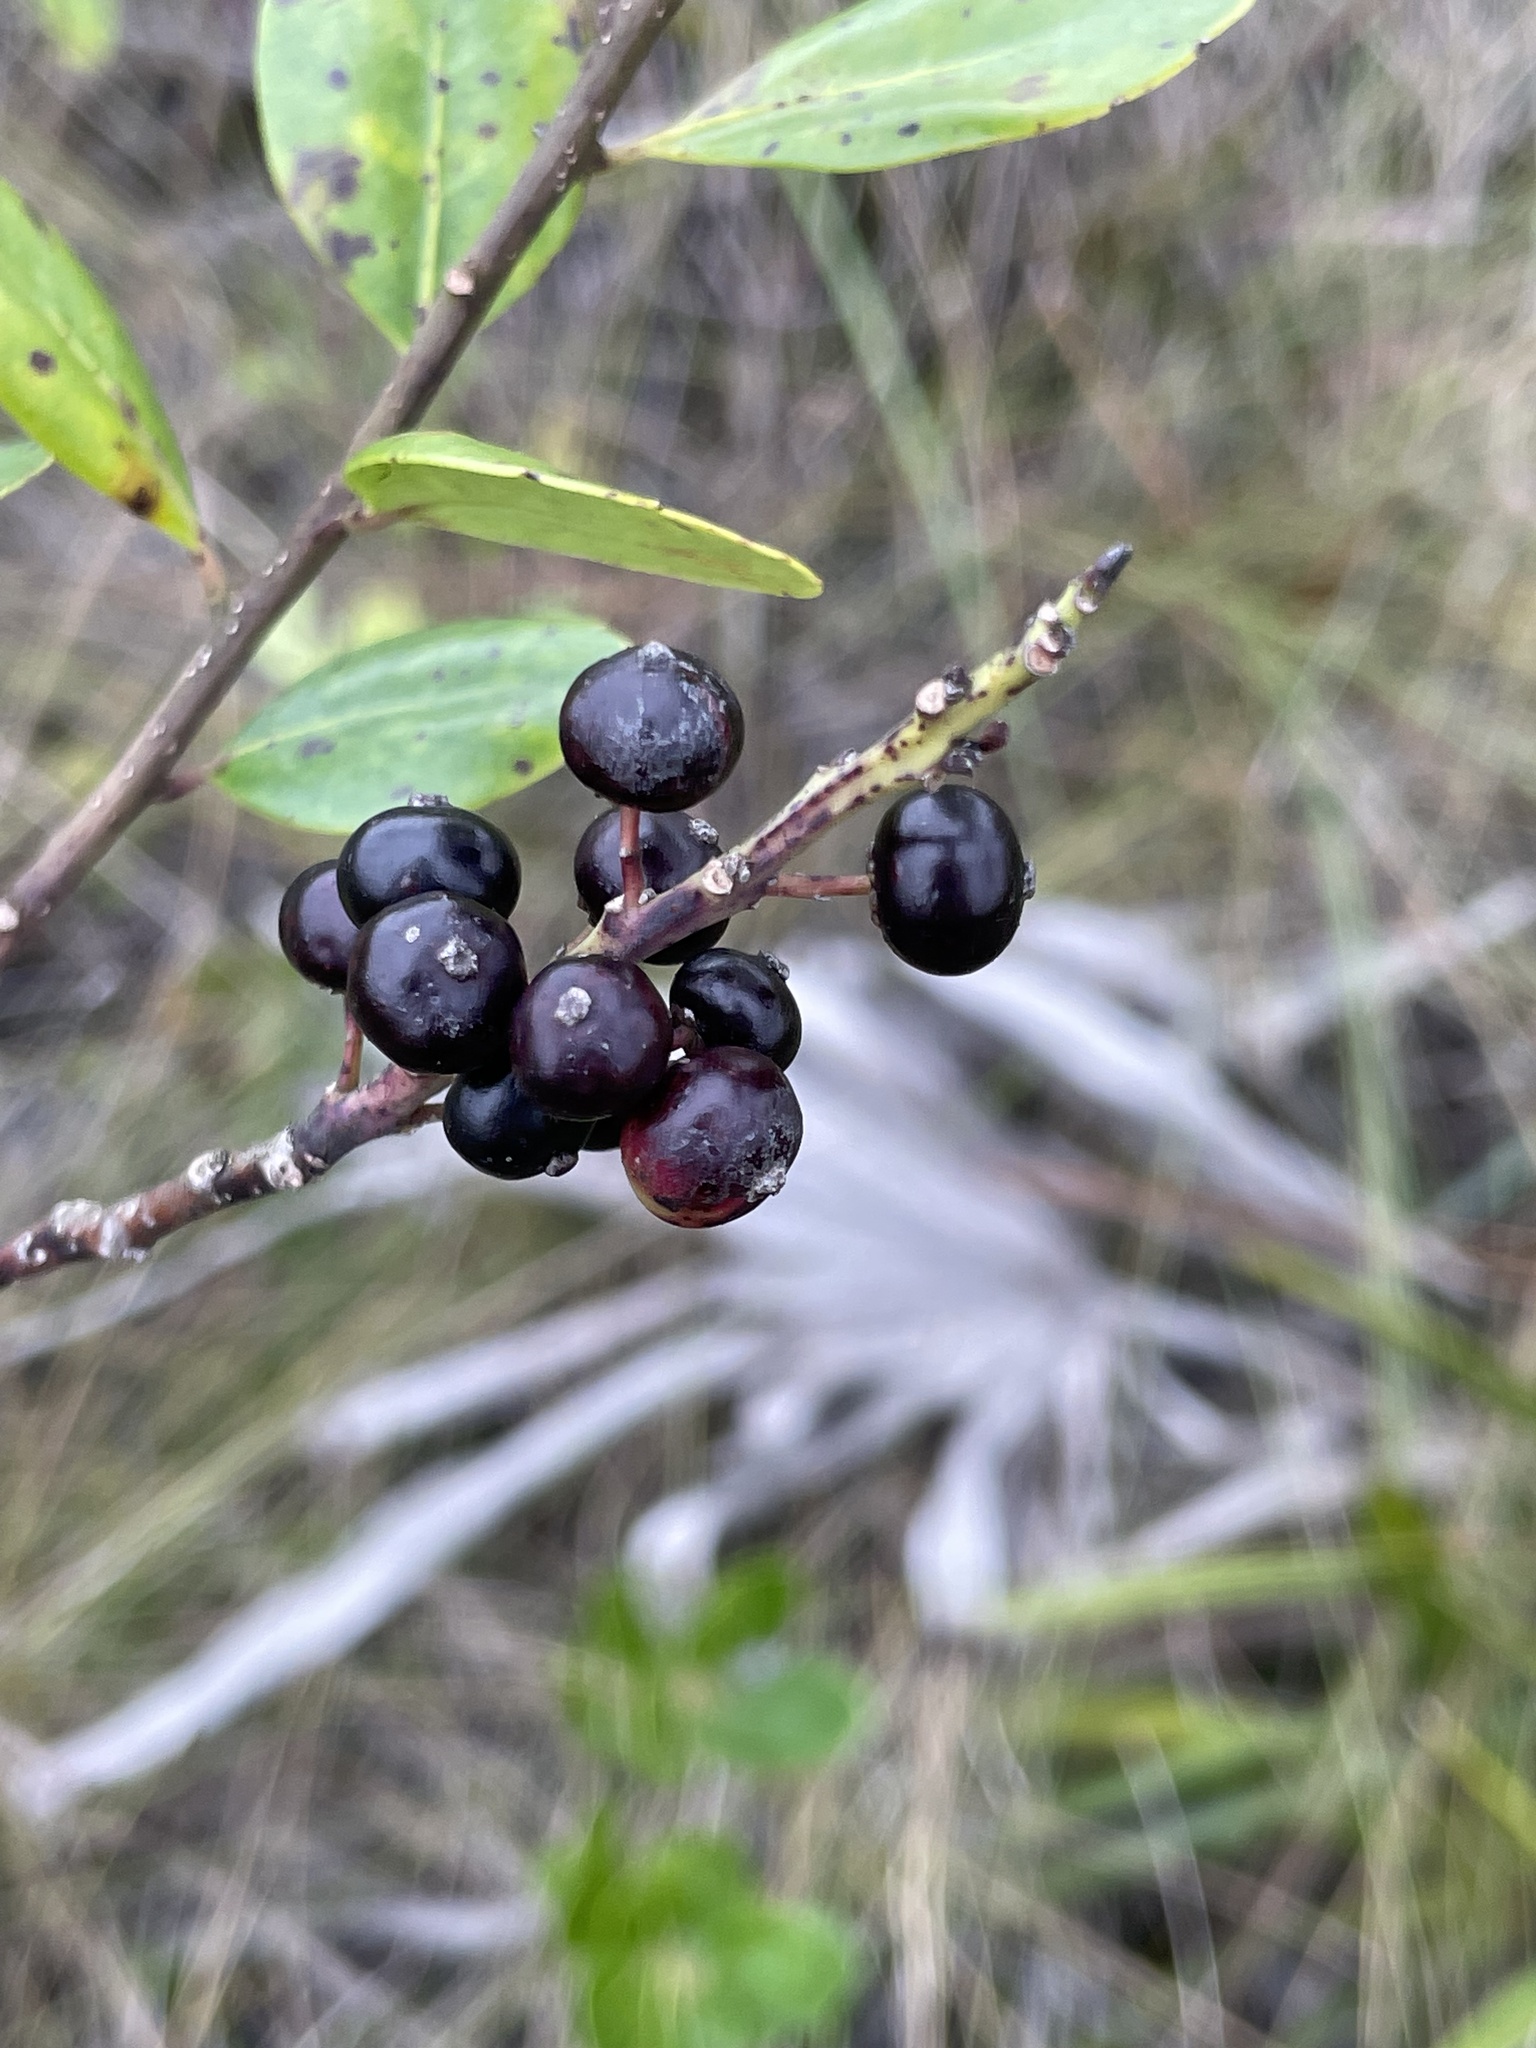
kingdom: Plantae
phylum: Tracheophyta
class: Magnoliopsida
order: Aquifoliales
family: Aquifoliaceae
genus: Ilex
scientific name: Ilex glabra
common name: Bitter gallberry
